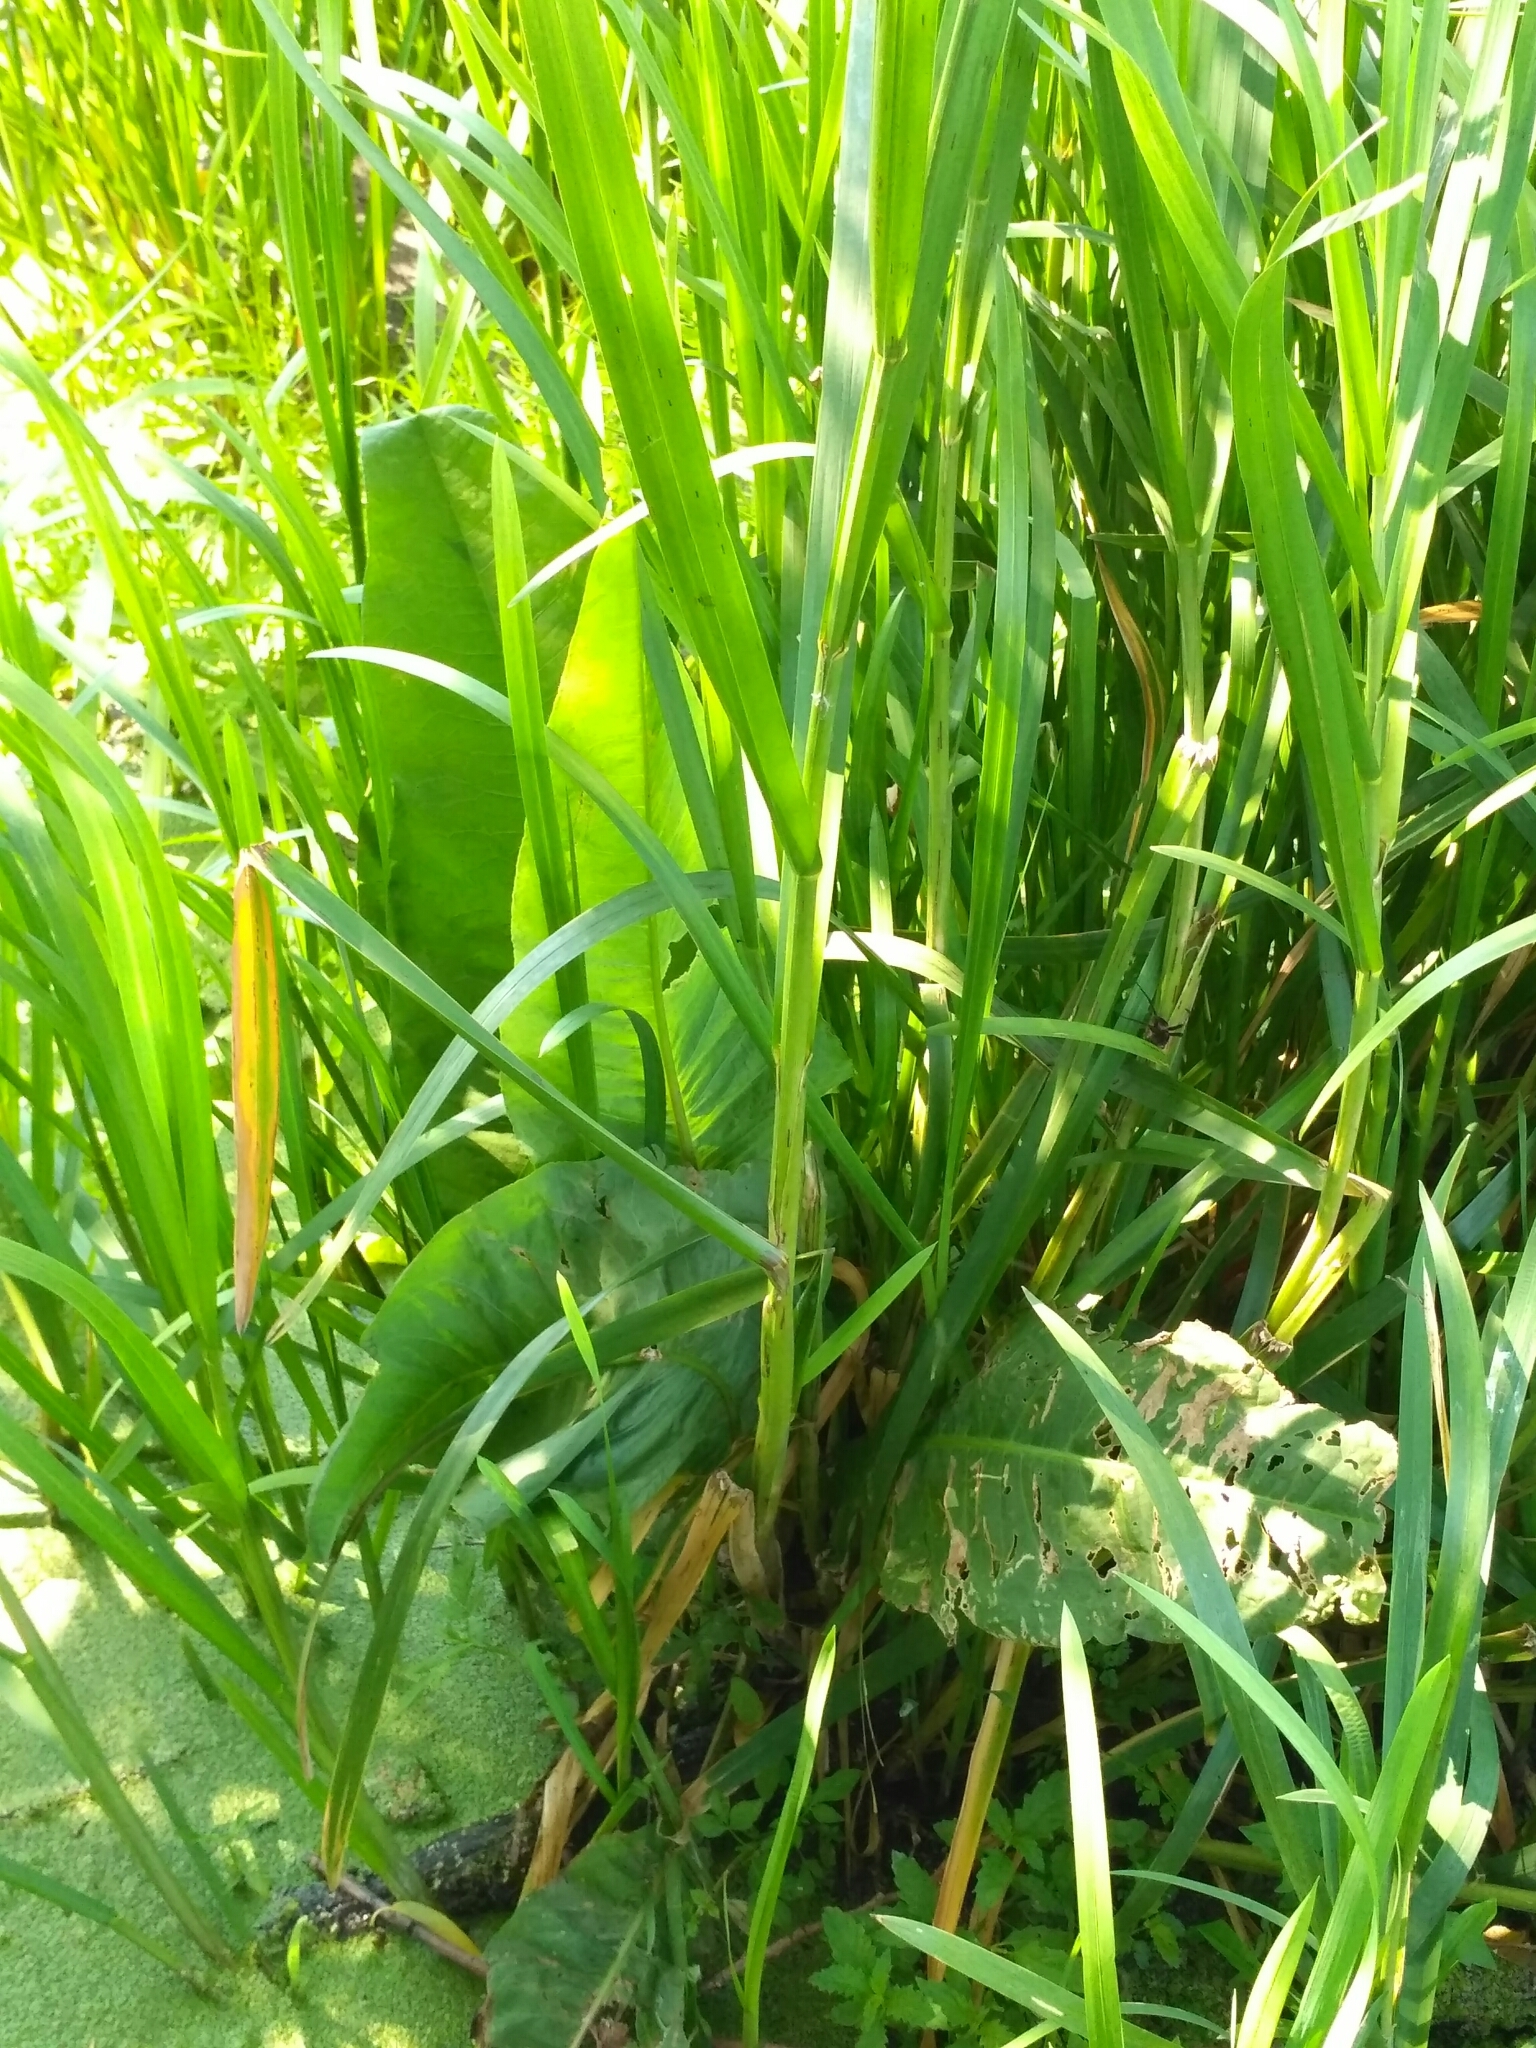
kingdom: Plantae
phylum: Tracheophyta
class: Magnoliopsida
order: Caryophyllales
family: Polygonaceae
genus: Rumex
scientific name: Rumex hydrolapathum
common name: Water dock
